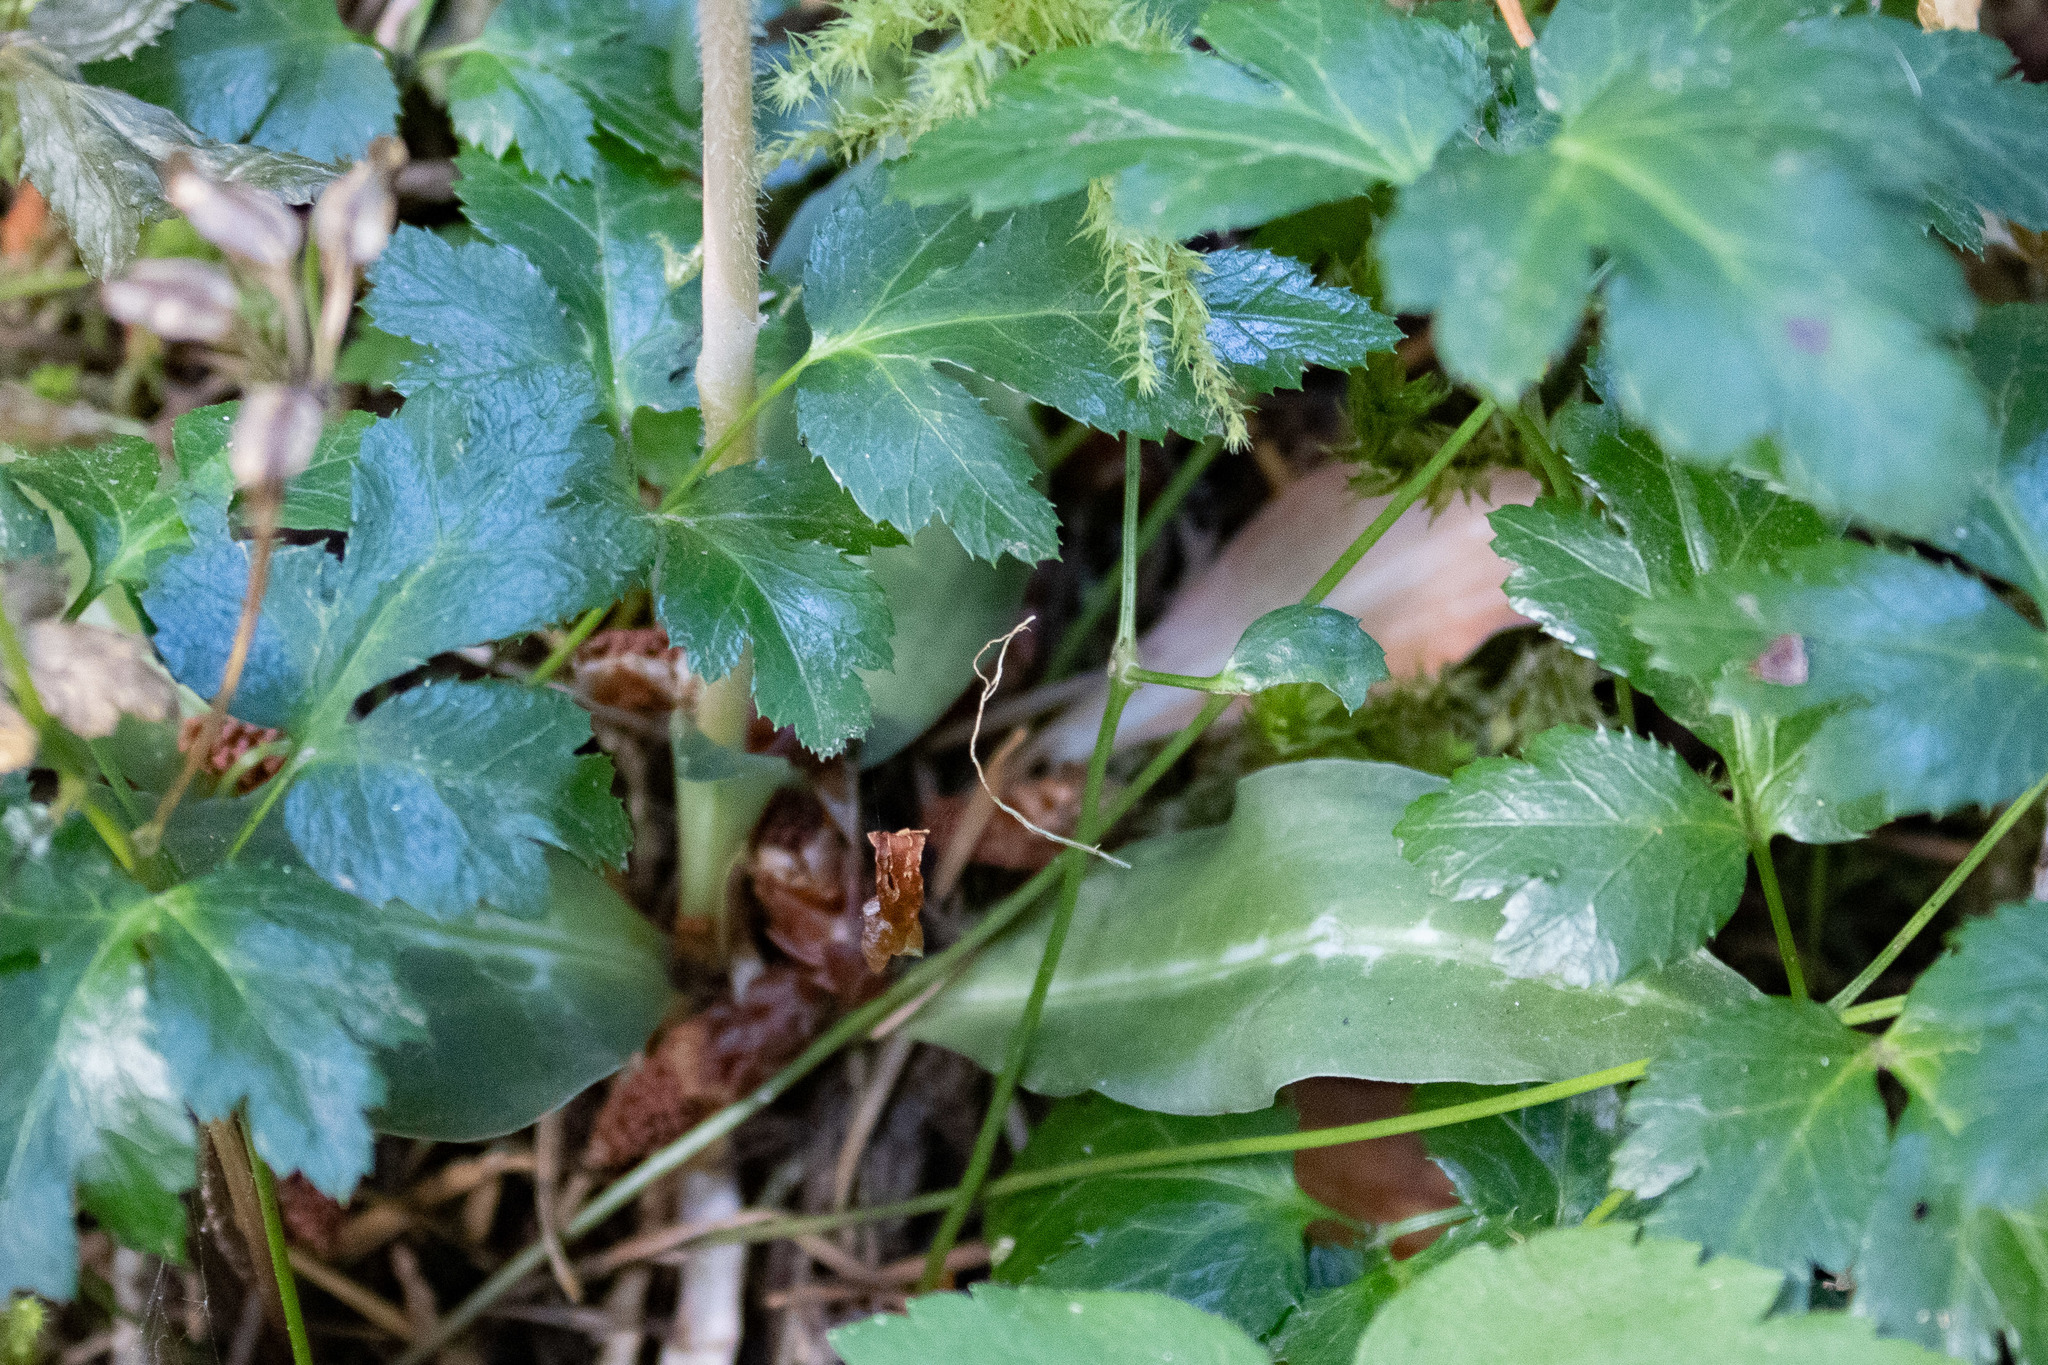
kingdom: Plantae
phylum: Tracheophyta
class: Liliopsida
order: Asparagales
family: Orchidaceae
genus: Goodyera
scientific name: Goodyera oblongifolia
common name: Giant rattlesnake-plantain
